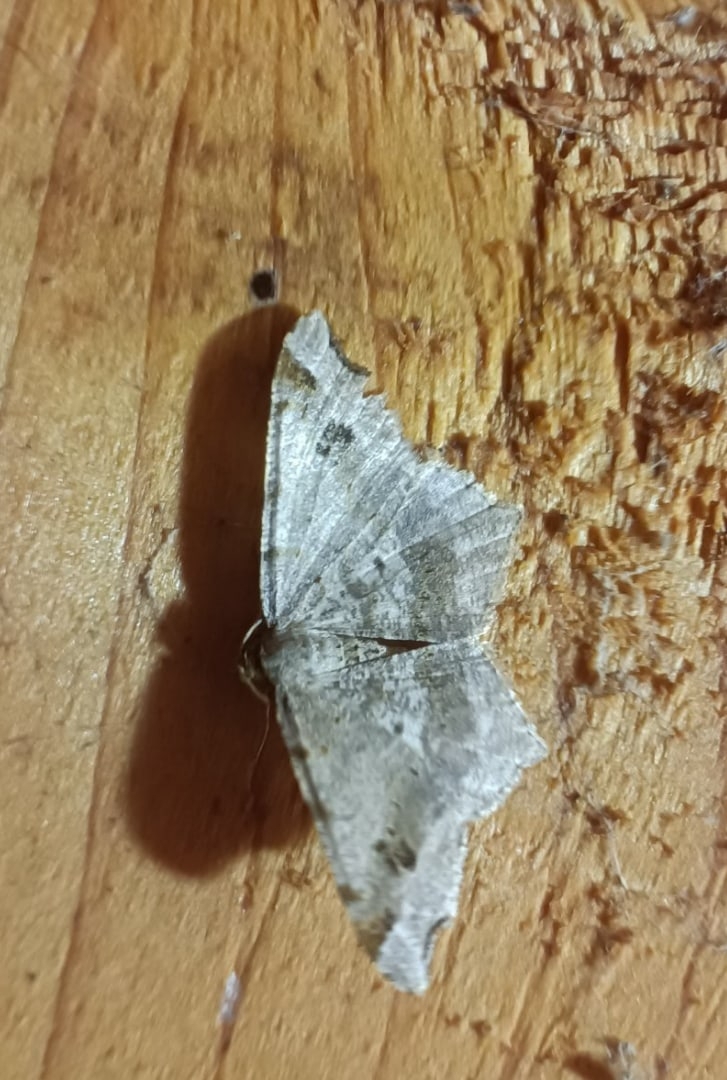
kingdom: Animalia
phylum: Arthropoda
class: Insecta
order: Lepidoptera
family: Geometridae
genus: Macaria
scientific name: Macaria alternata
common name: Sharp-angled peacock
